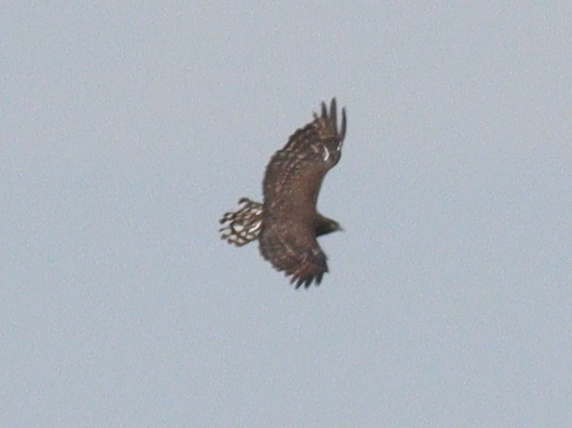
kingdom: Animalia
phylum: Chordata
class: Aves
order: Accipitriformes
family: Accipitridae
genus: Circaetus
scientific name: Circaetus pectoralis
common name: Black-chested snake eagle
